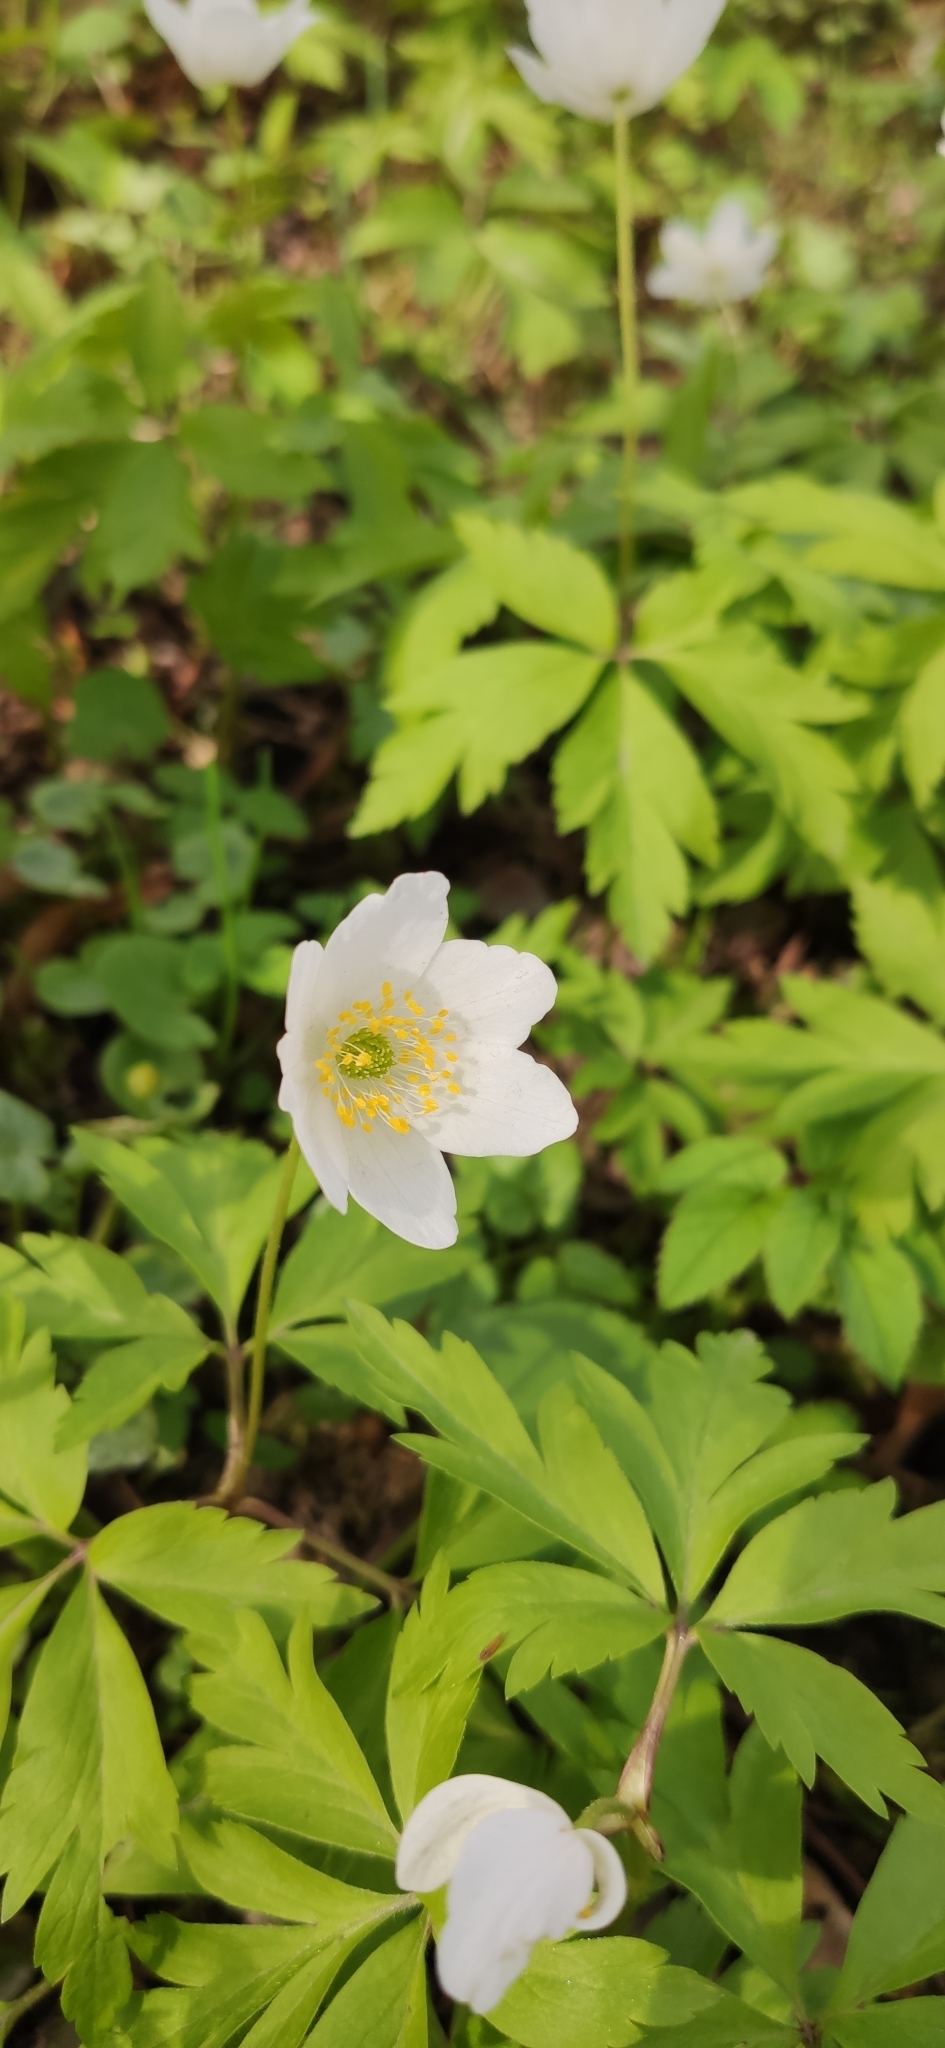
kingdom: Plantae
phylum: Tracheophyta
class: Magnoliopsida
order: Ranunculales
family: Ranunculaceae
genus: Anemone
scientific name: Anemone nemorosa
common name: Wood anemone
